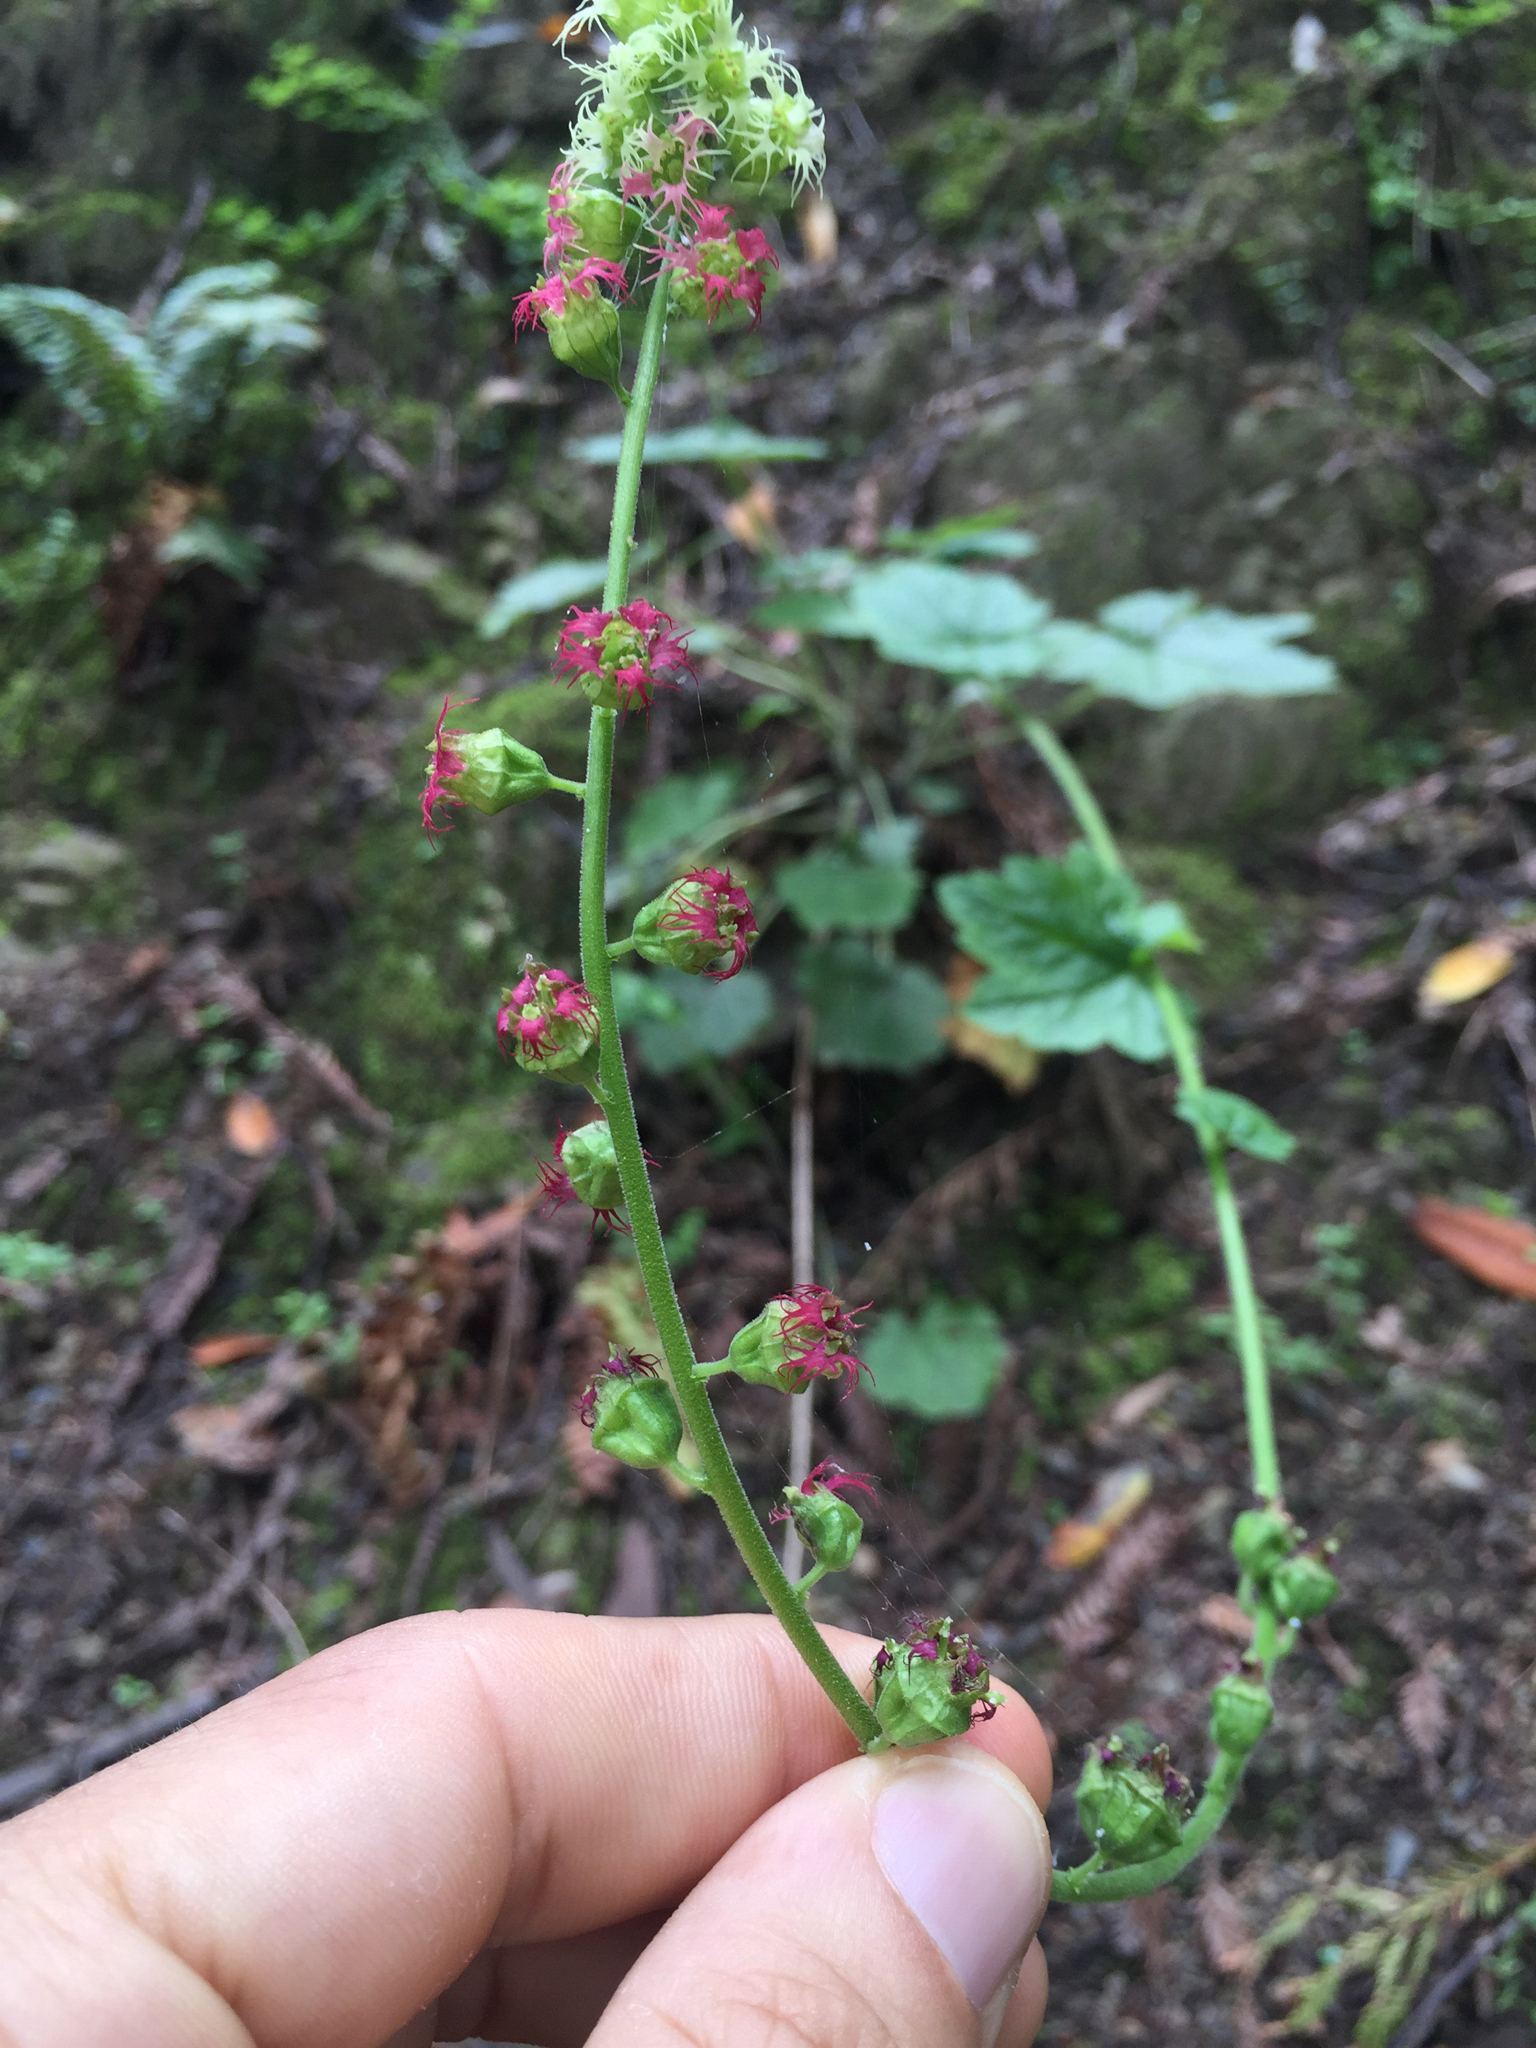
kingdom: Plantae
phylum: Tracheophyta
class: Magnoliopsida
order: Saxifragales
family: Saxifragaceae
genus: Tellima
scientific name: Tellima grandiflora
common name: Fringecups
